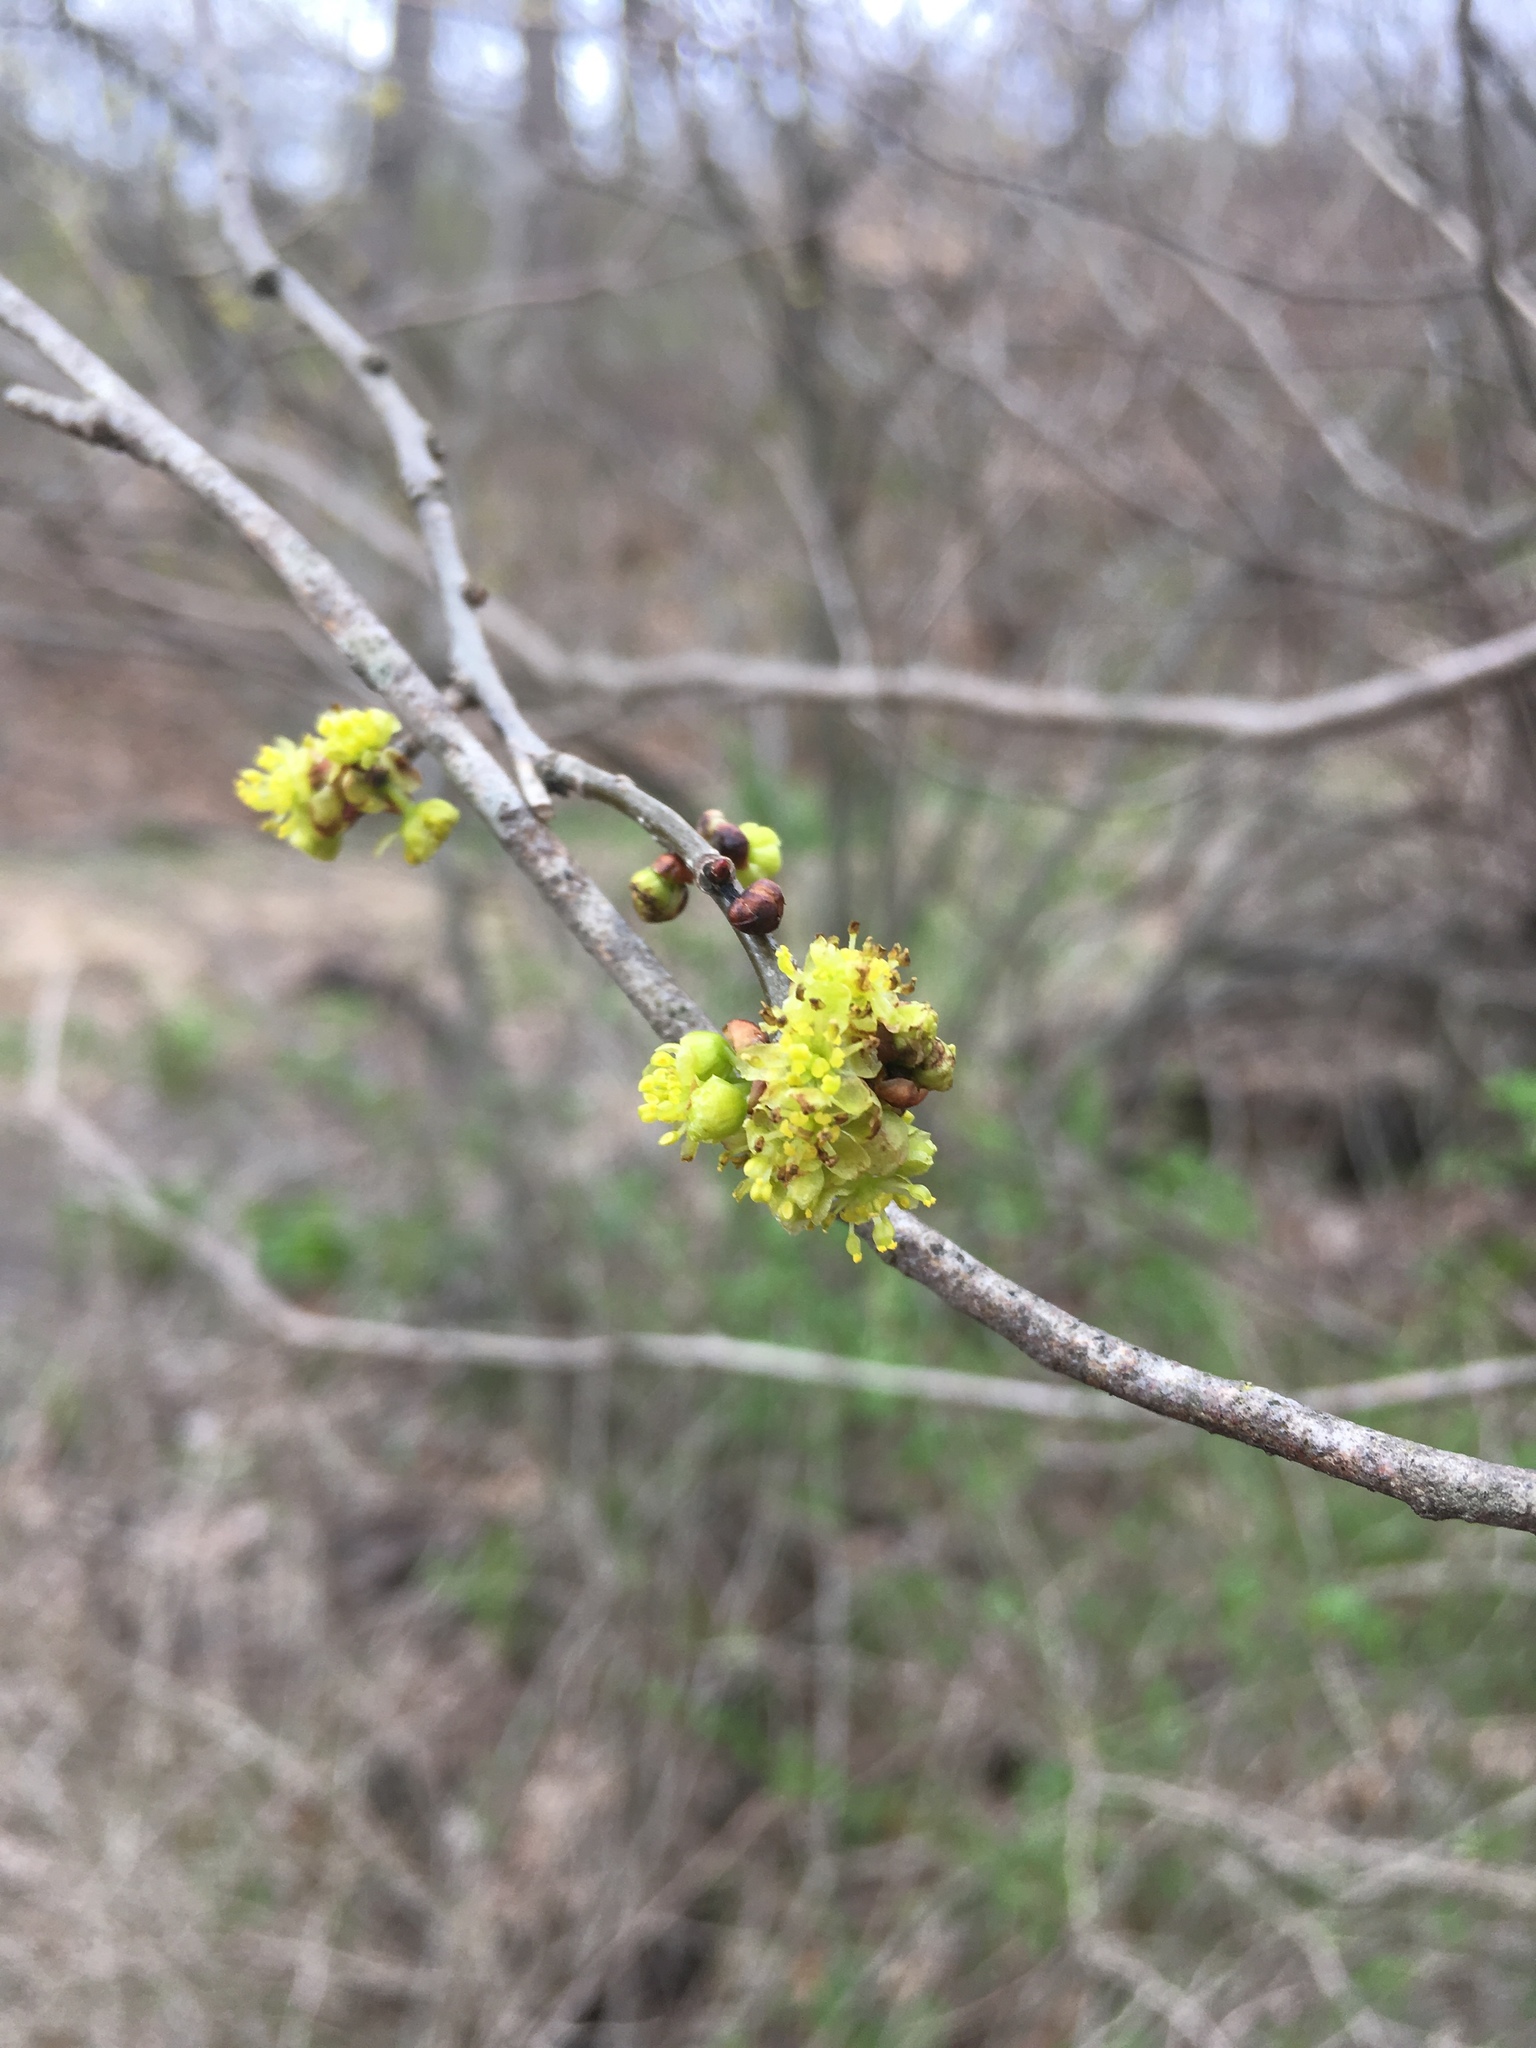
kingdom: Plantae
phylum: Tracheophyta
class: Magnoliopsida
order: Laurales
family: Lauraceae
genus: Lindera
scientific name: Lindera benzoin
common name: Spicebush
